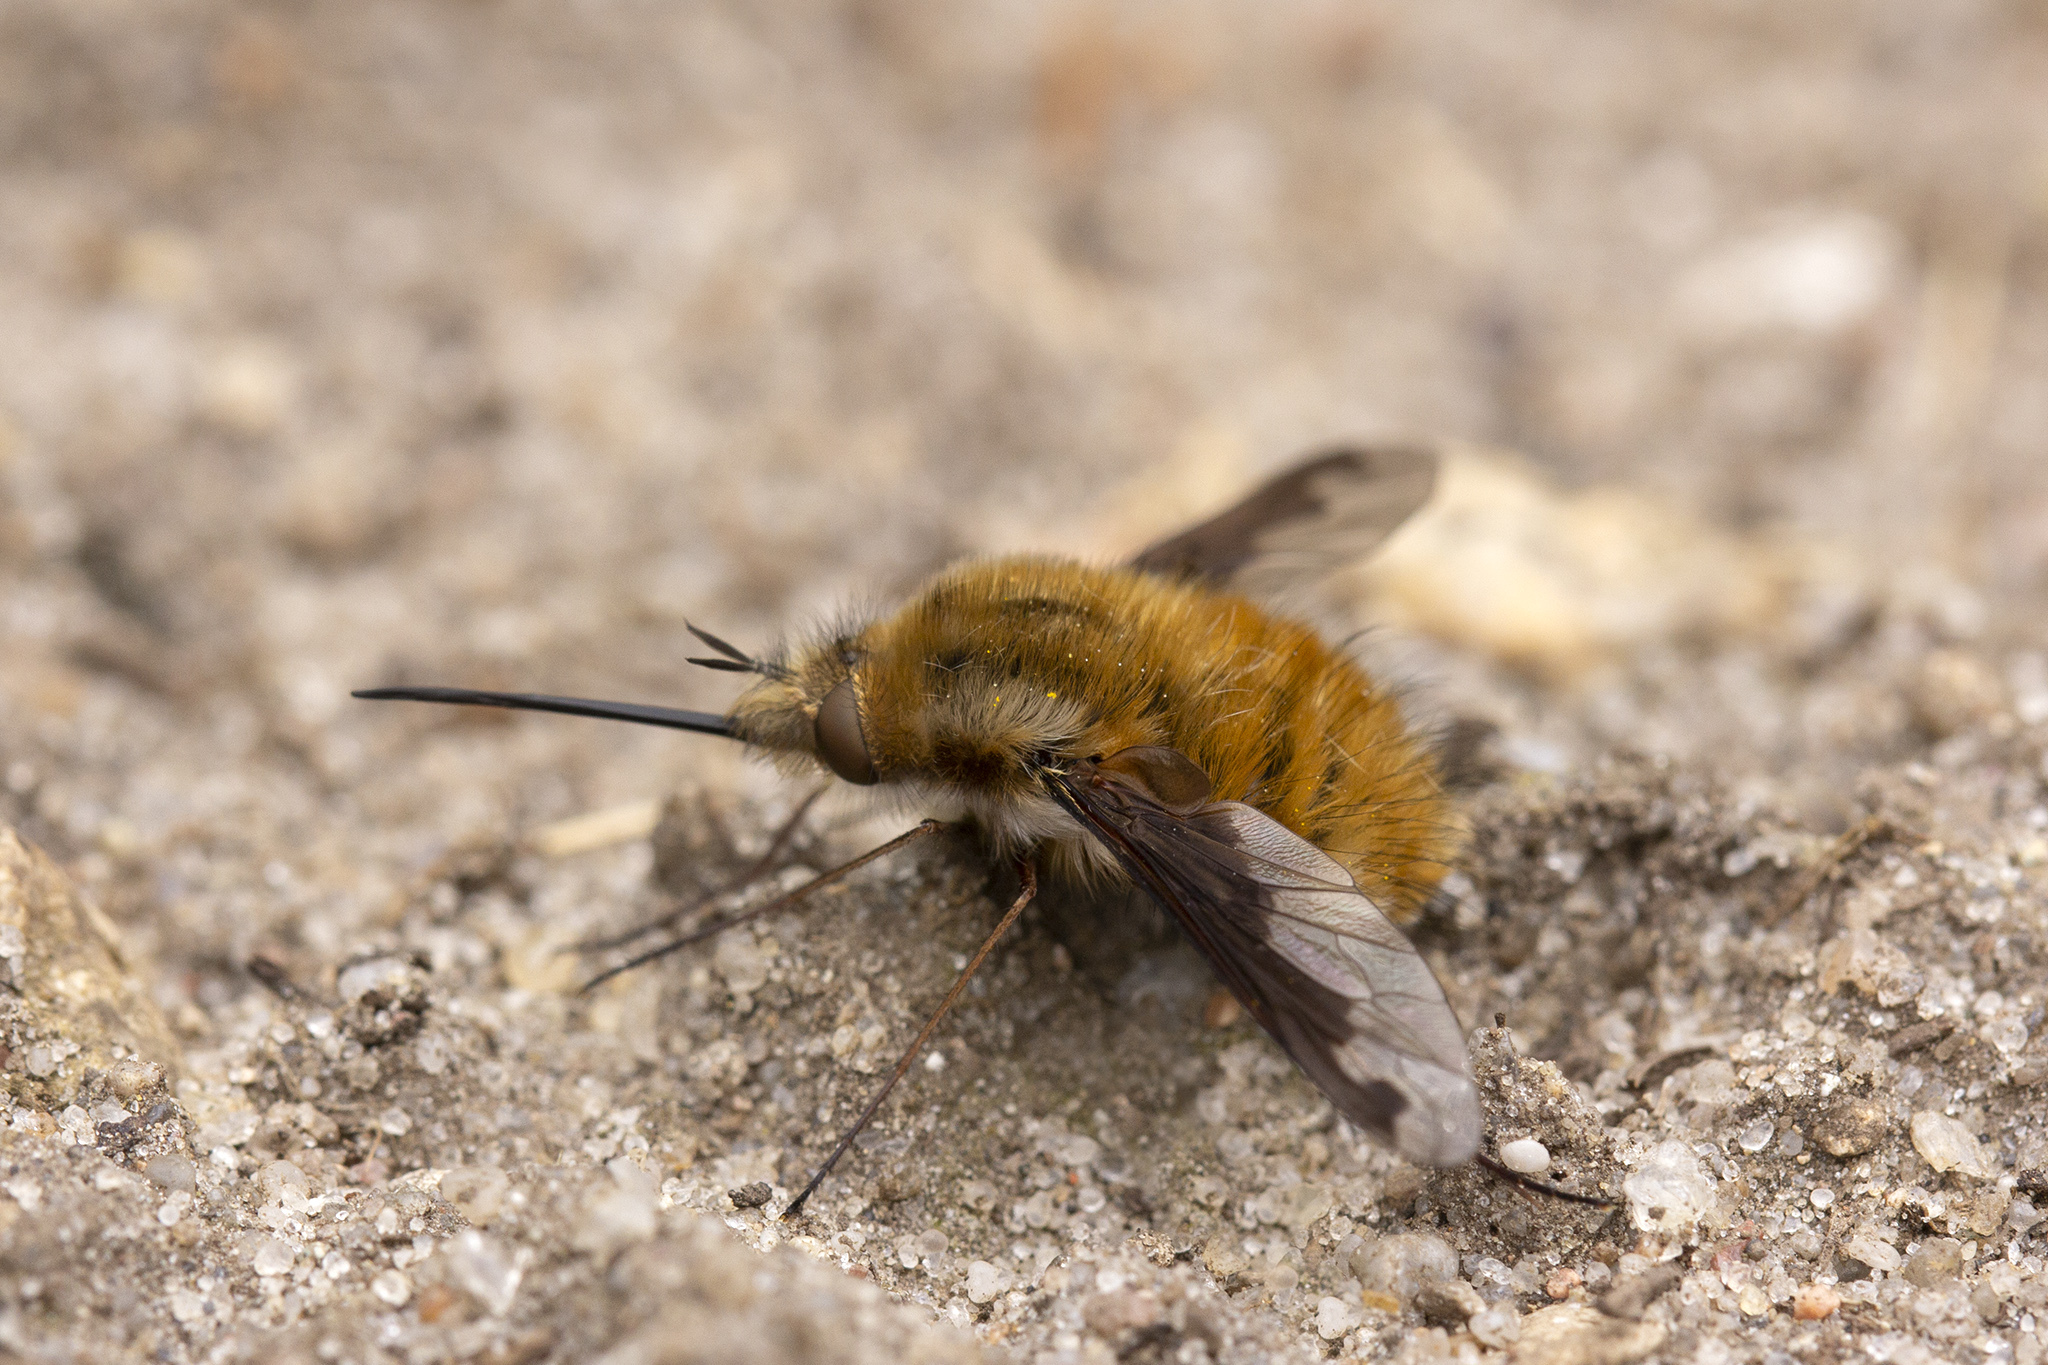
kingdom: Animalia
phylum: Arthropoda
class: Insecta
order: Diptera
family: Bombyliidae
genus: Bombylius
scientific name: Bombylius major
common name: Bee fly
